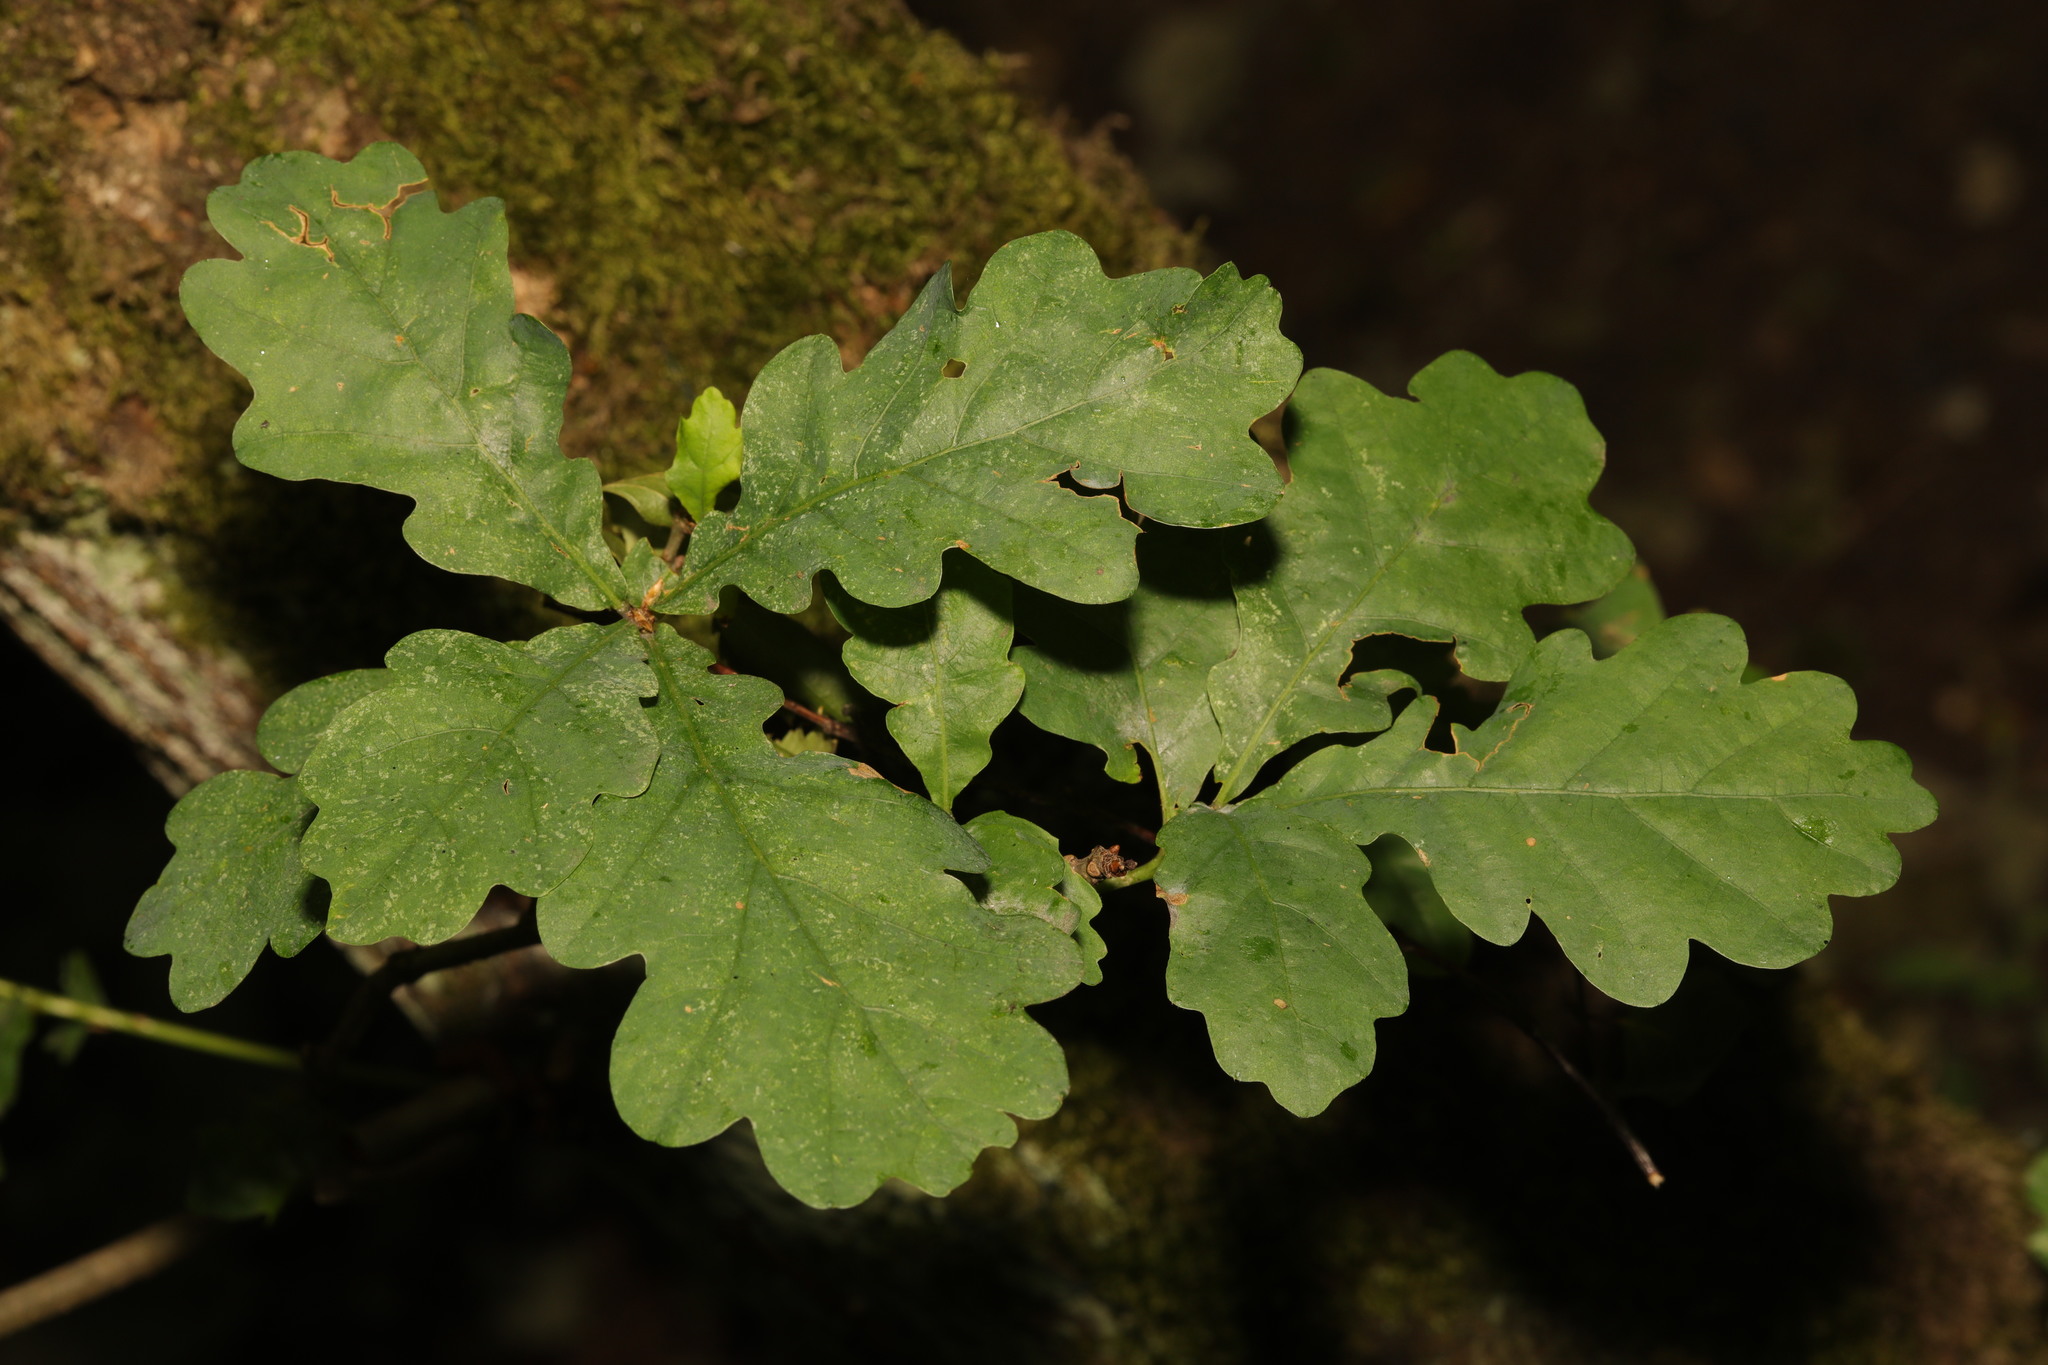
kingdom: Plantae
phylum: Tracheophyta
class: Magnoliopsida
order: Fagales
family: Fagaceae
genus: Quercus
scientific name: Quercus robur
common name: Pedunculate oak
